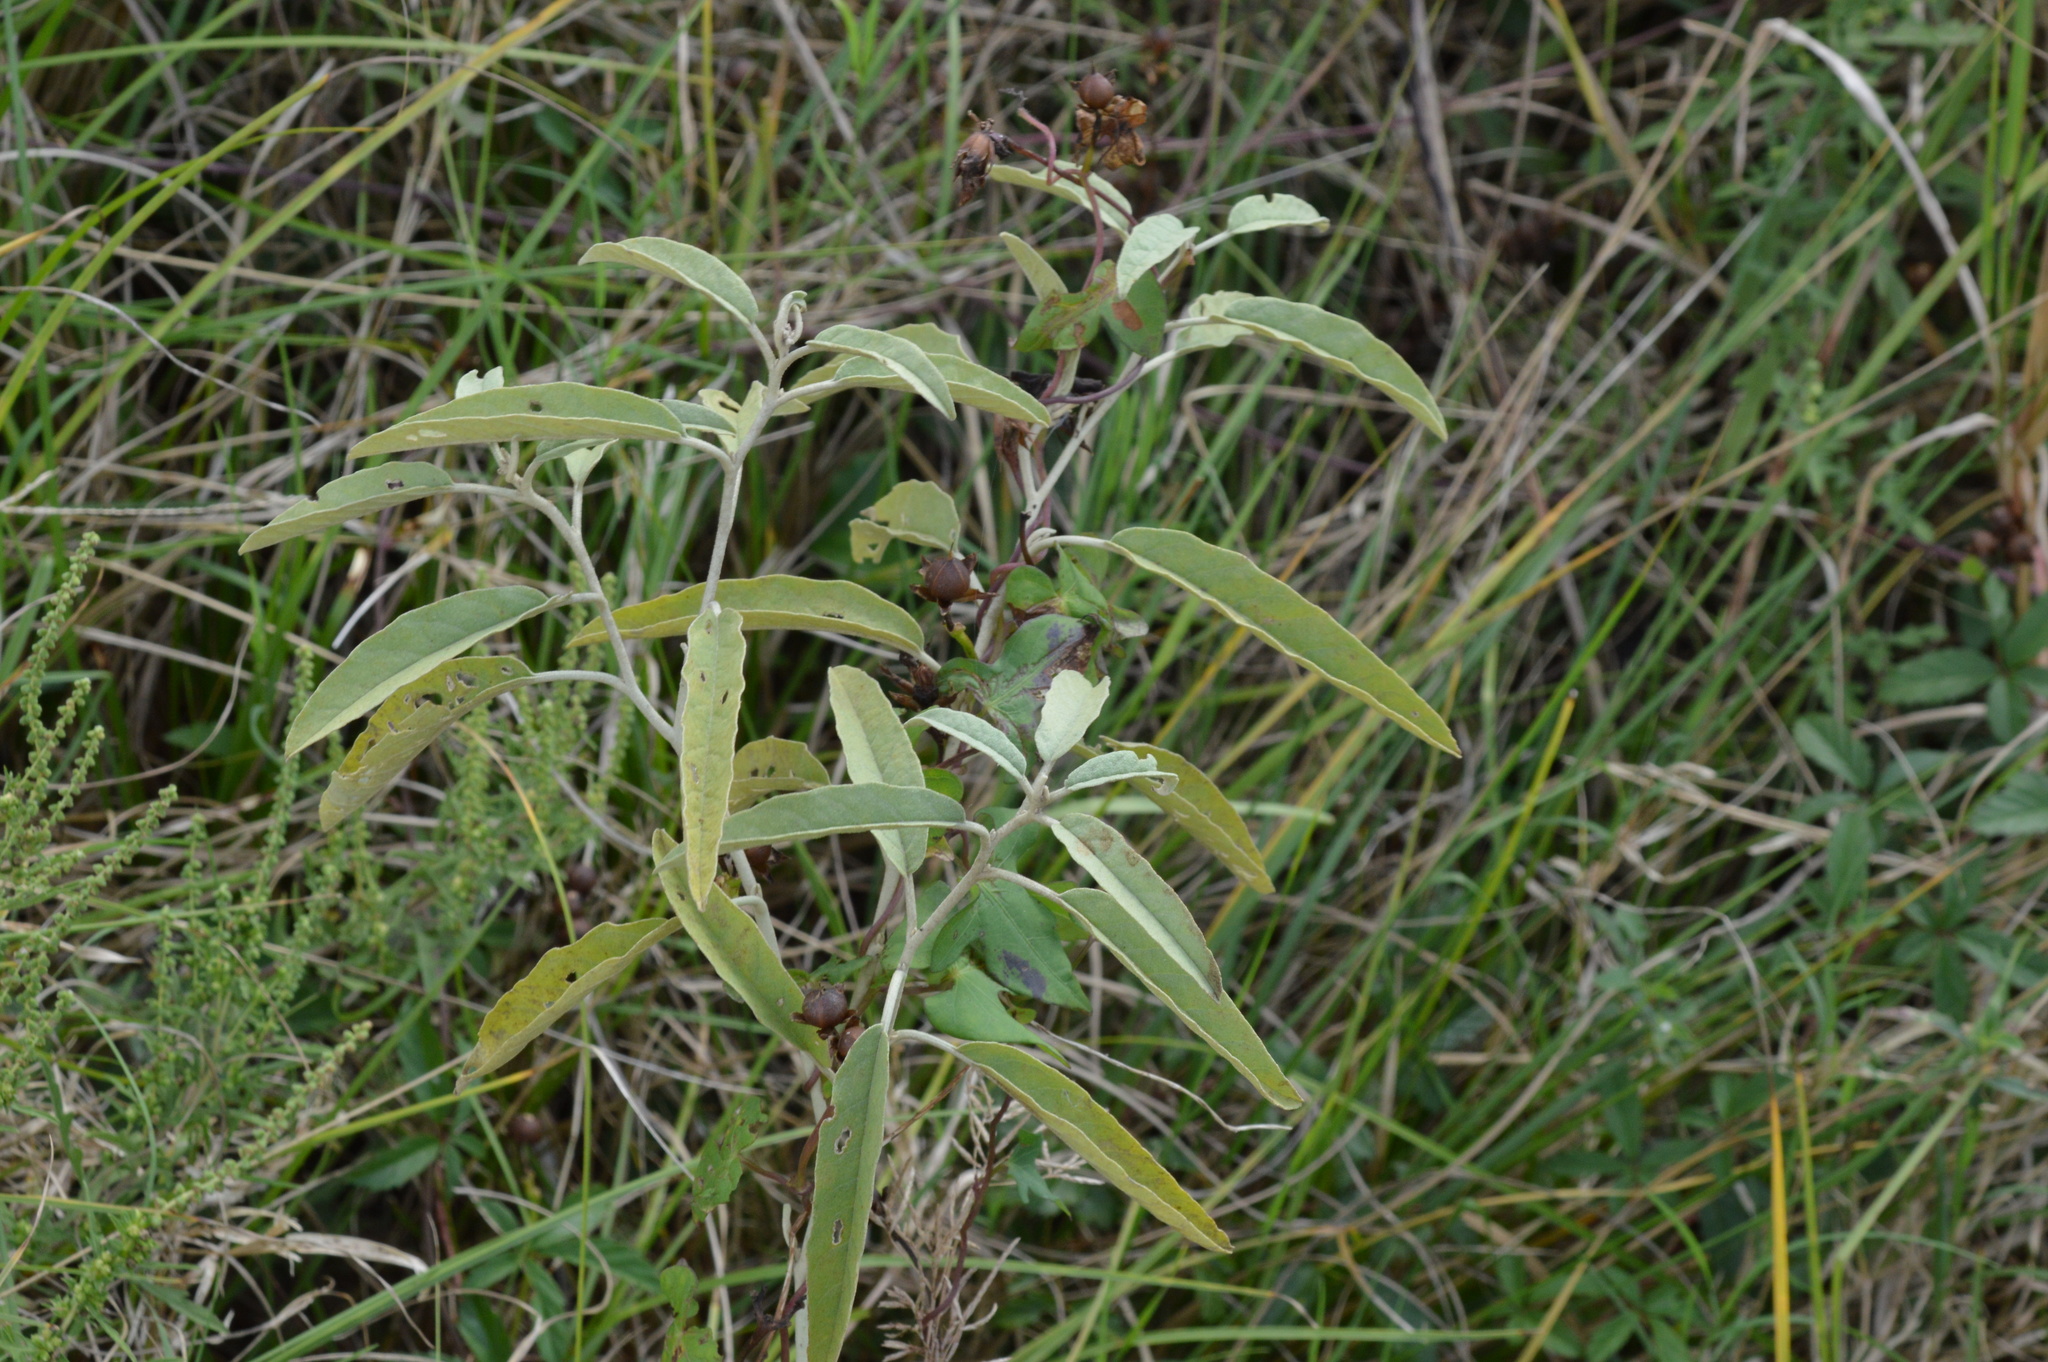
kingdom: Plantae
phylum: Tracheophyta
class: Magnoliopsida
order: Solanales
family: Solanaceae
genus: Solanum
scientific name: Solanum elaeagnifolium
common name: Silverleaf nightshade
